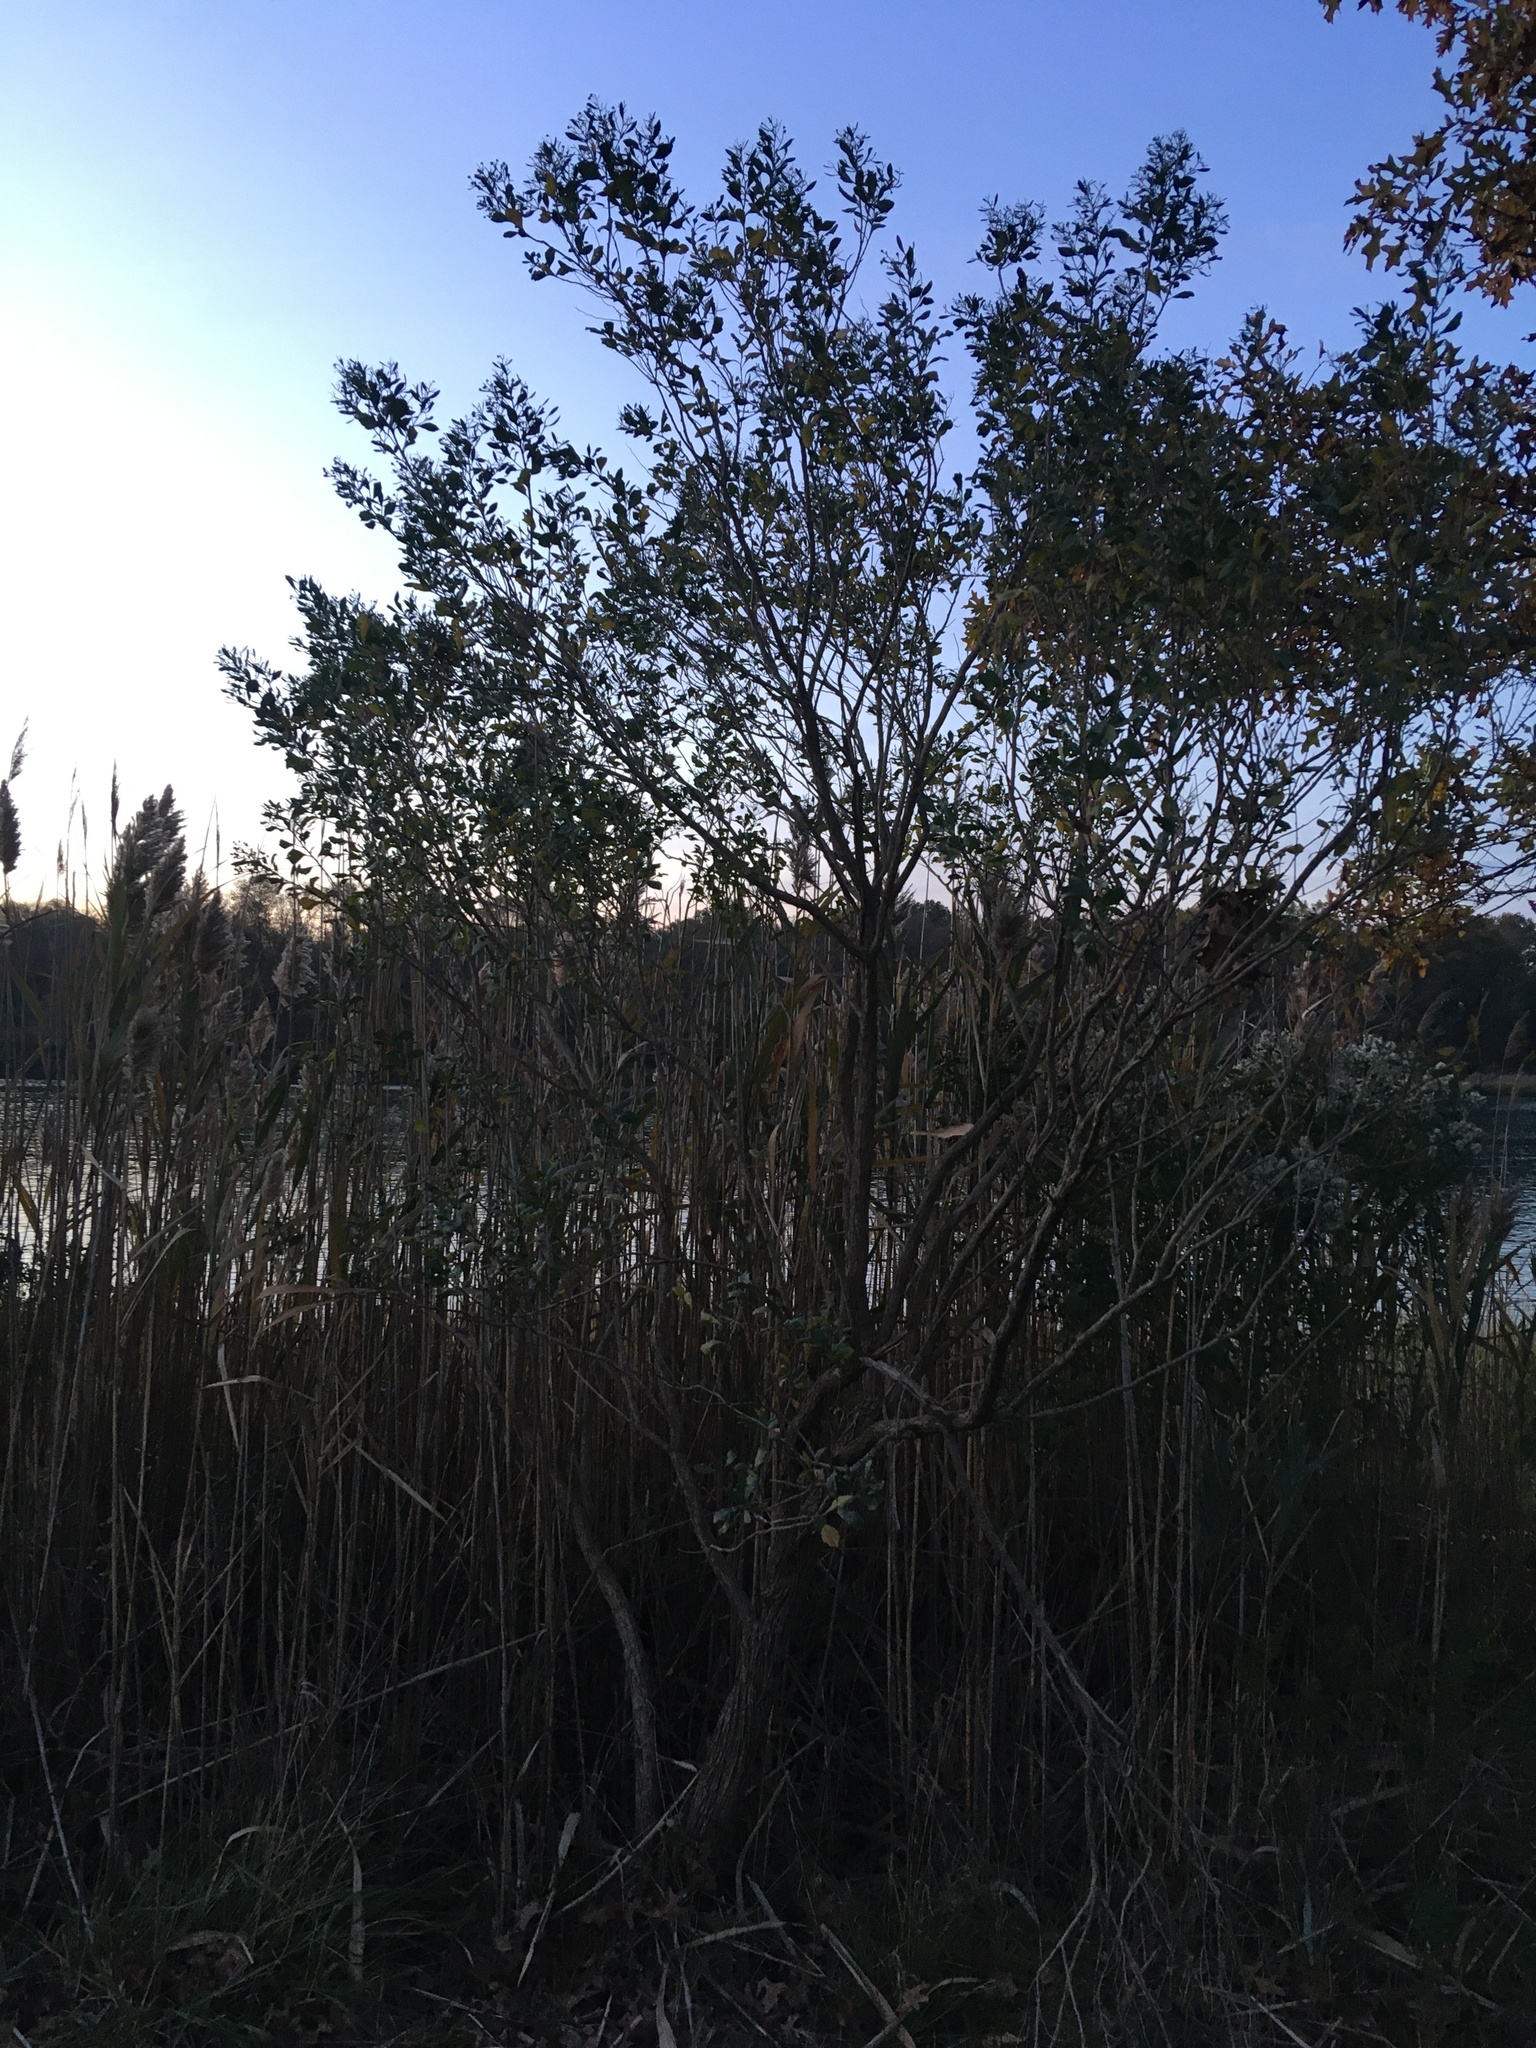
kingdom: Plantae
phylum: Tracheophyta
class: Magnoliopsida
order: Asterales
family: Asteraceae
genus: Baccharis
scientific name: Baccharis halimifolia
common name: Eastern baccharis
